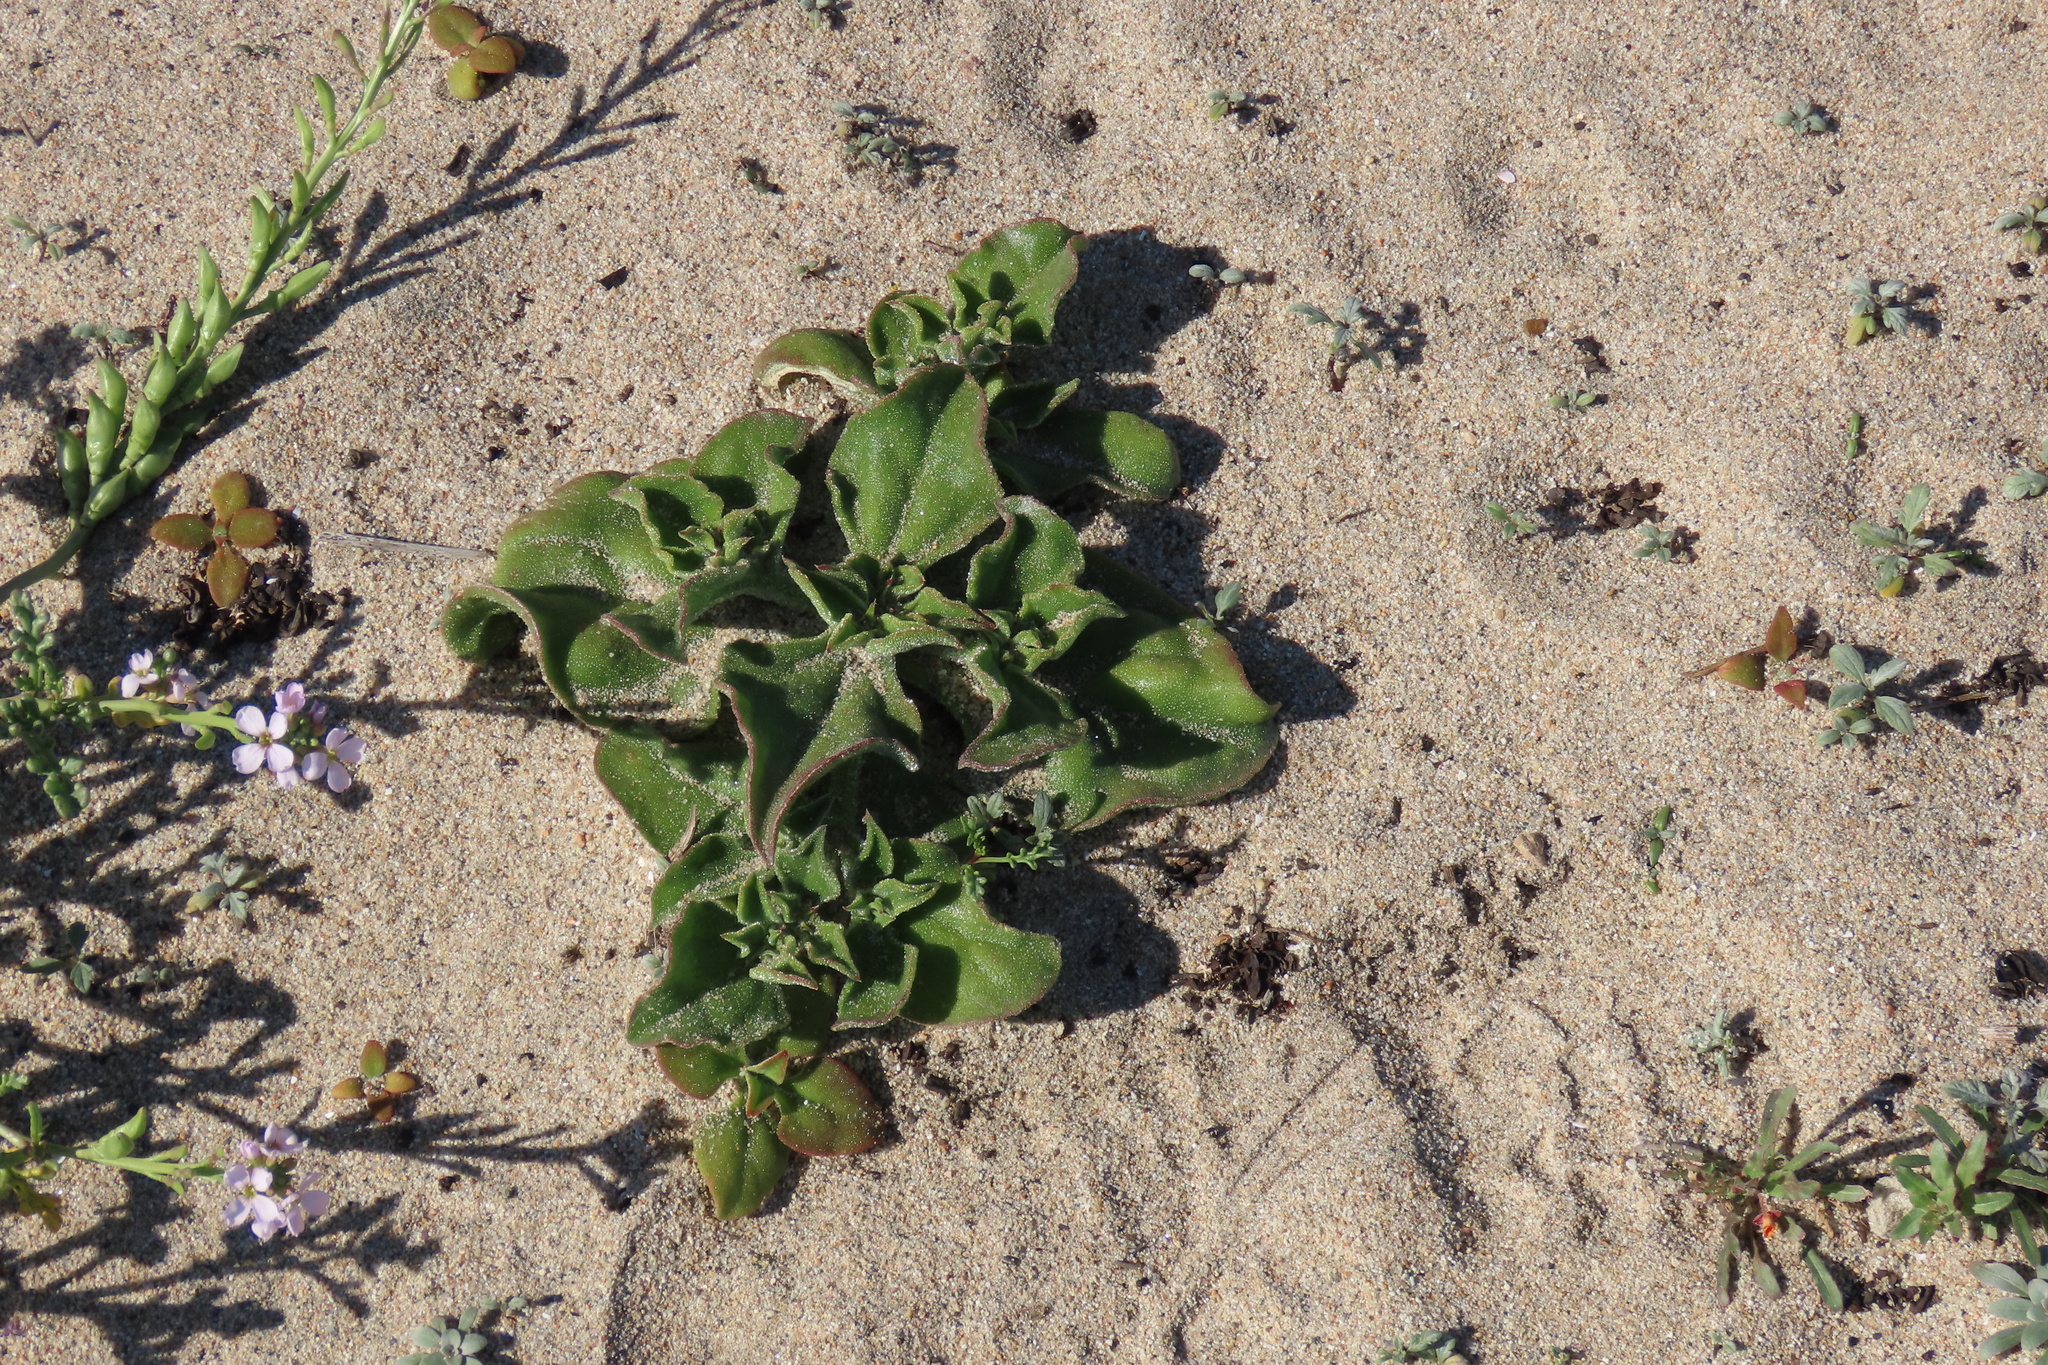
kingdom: Plantae
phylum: Tracheophyta
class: Magnoliopsida
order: Caryophyllales
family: Aizoaceae
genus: Mesembryanthemum
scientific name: Mesembryanthemum crystallinum
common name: Common iceplant
